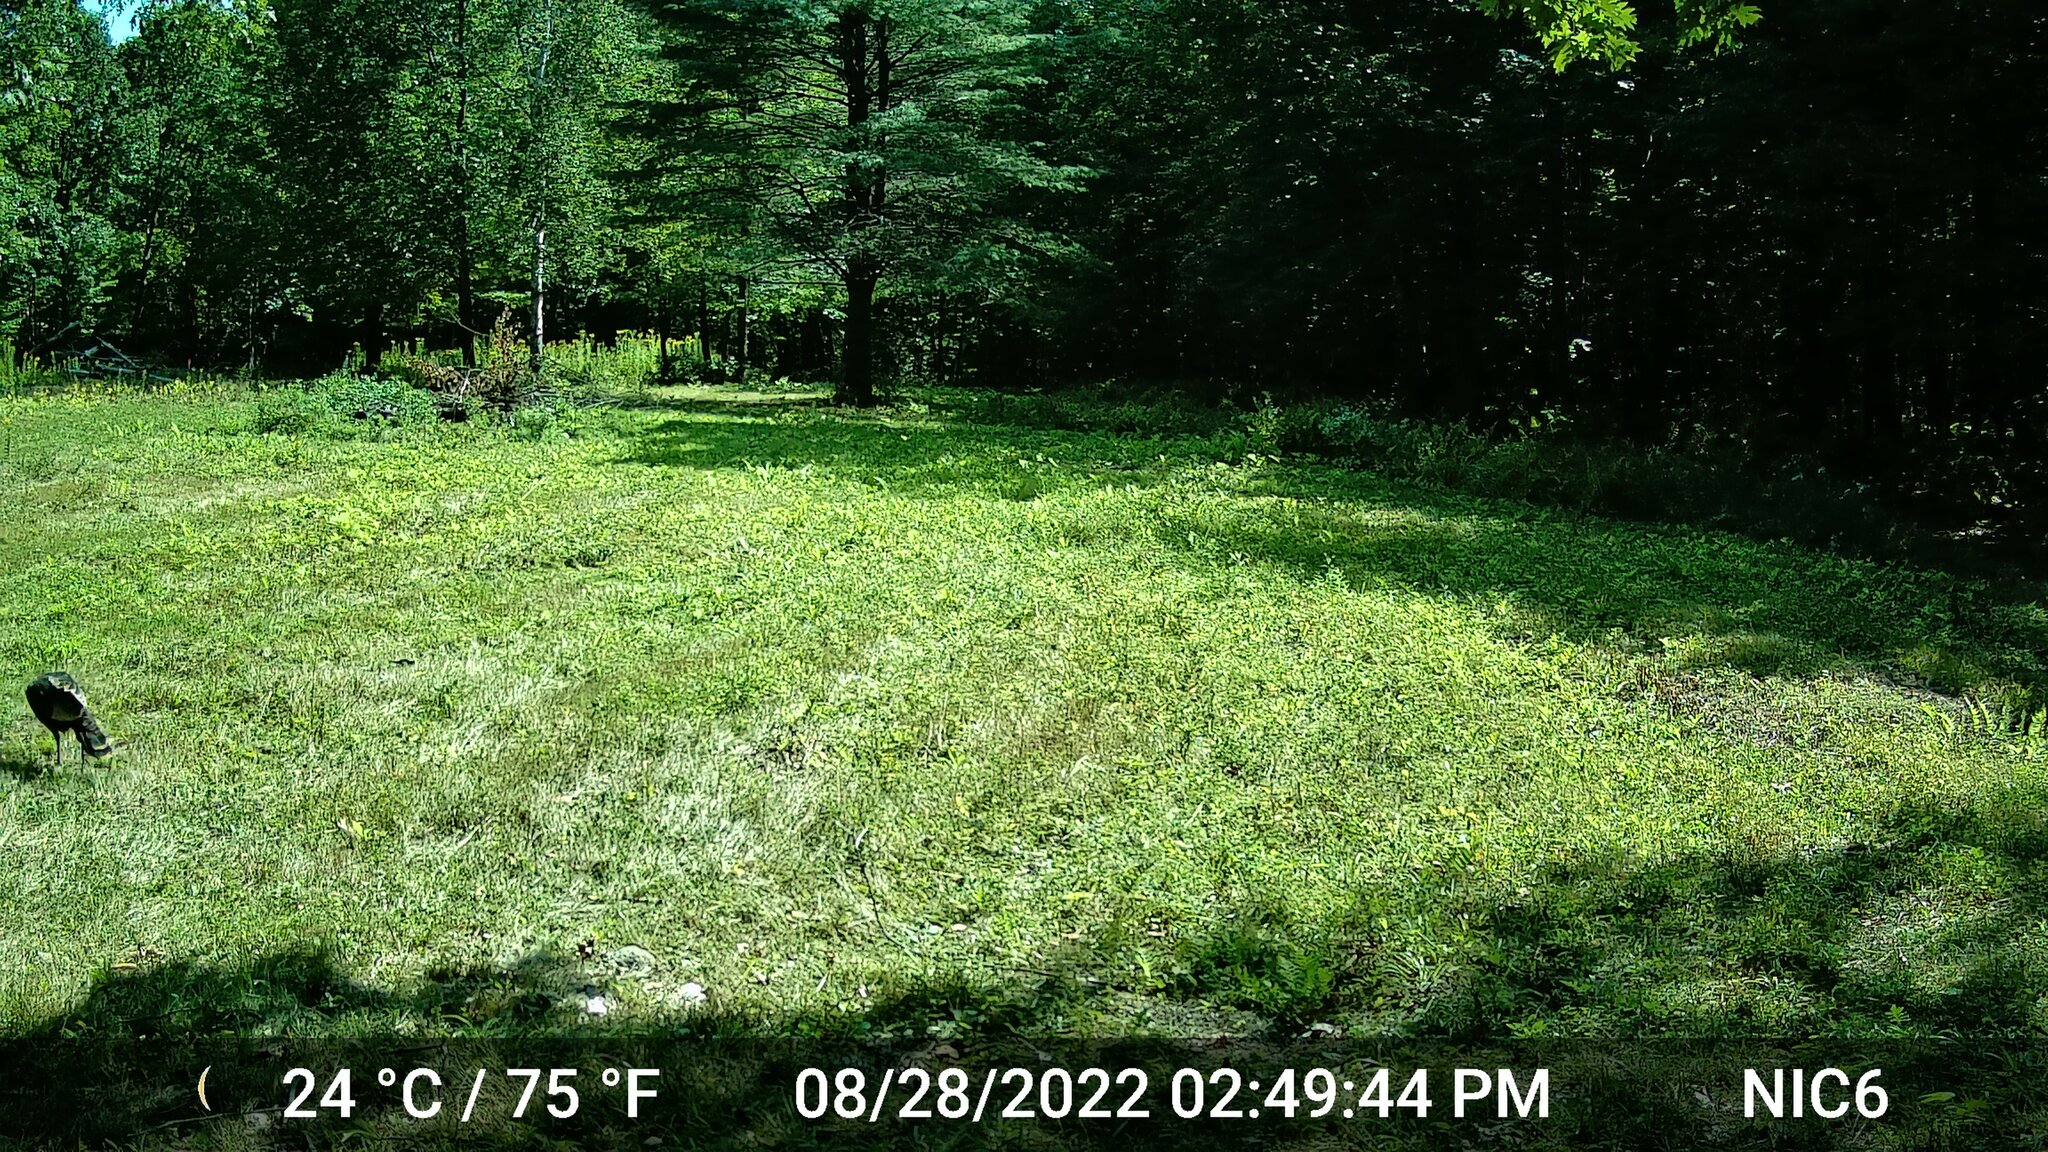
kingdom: Animalia
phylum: Chordata
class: Aves
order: Galliformes
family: Phasianidae
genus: Meleagris
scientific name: Meleagris gallopavo
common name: Wild turkey
